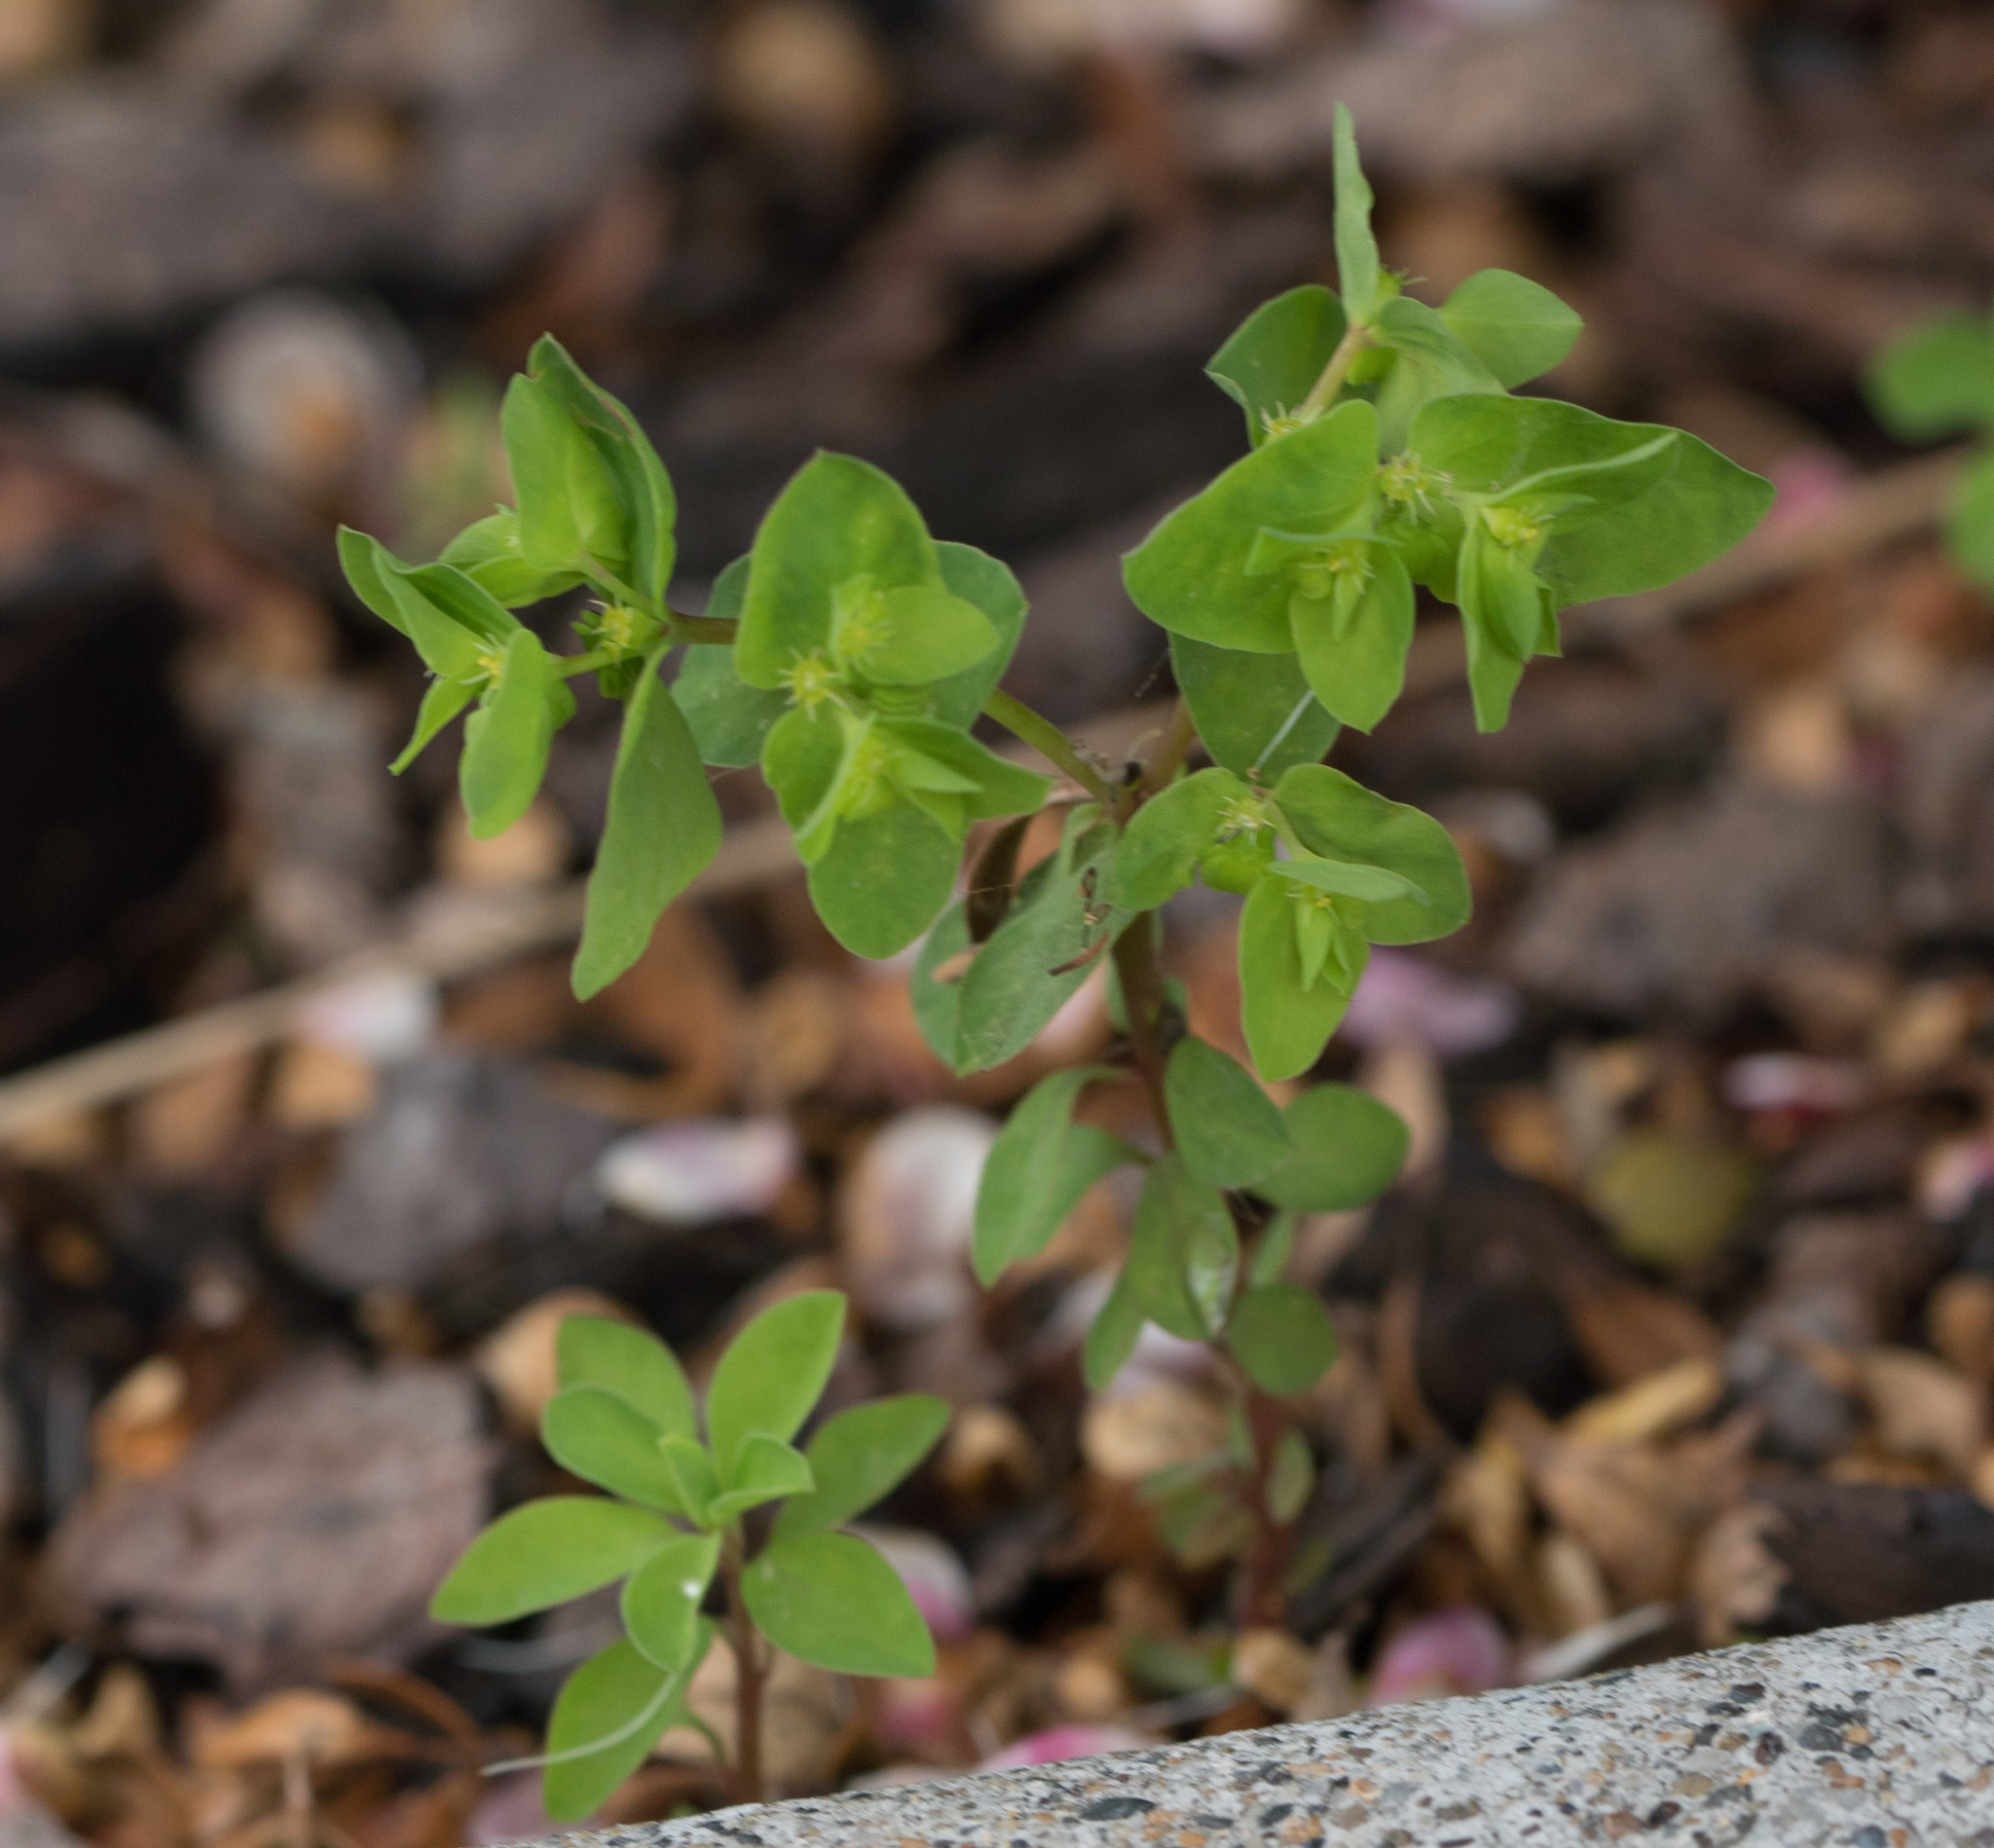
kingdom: Plantae
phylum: Tracheophyta
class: Magnoliopsida
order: Malpighiales
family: Euphorbiaceae
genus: Euphorbia
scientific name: Euphorbia peplus
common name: Petty spurge
